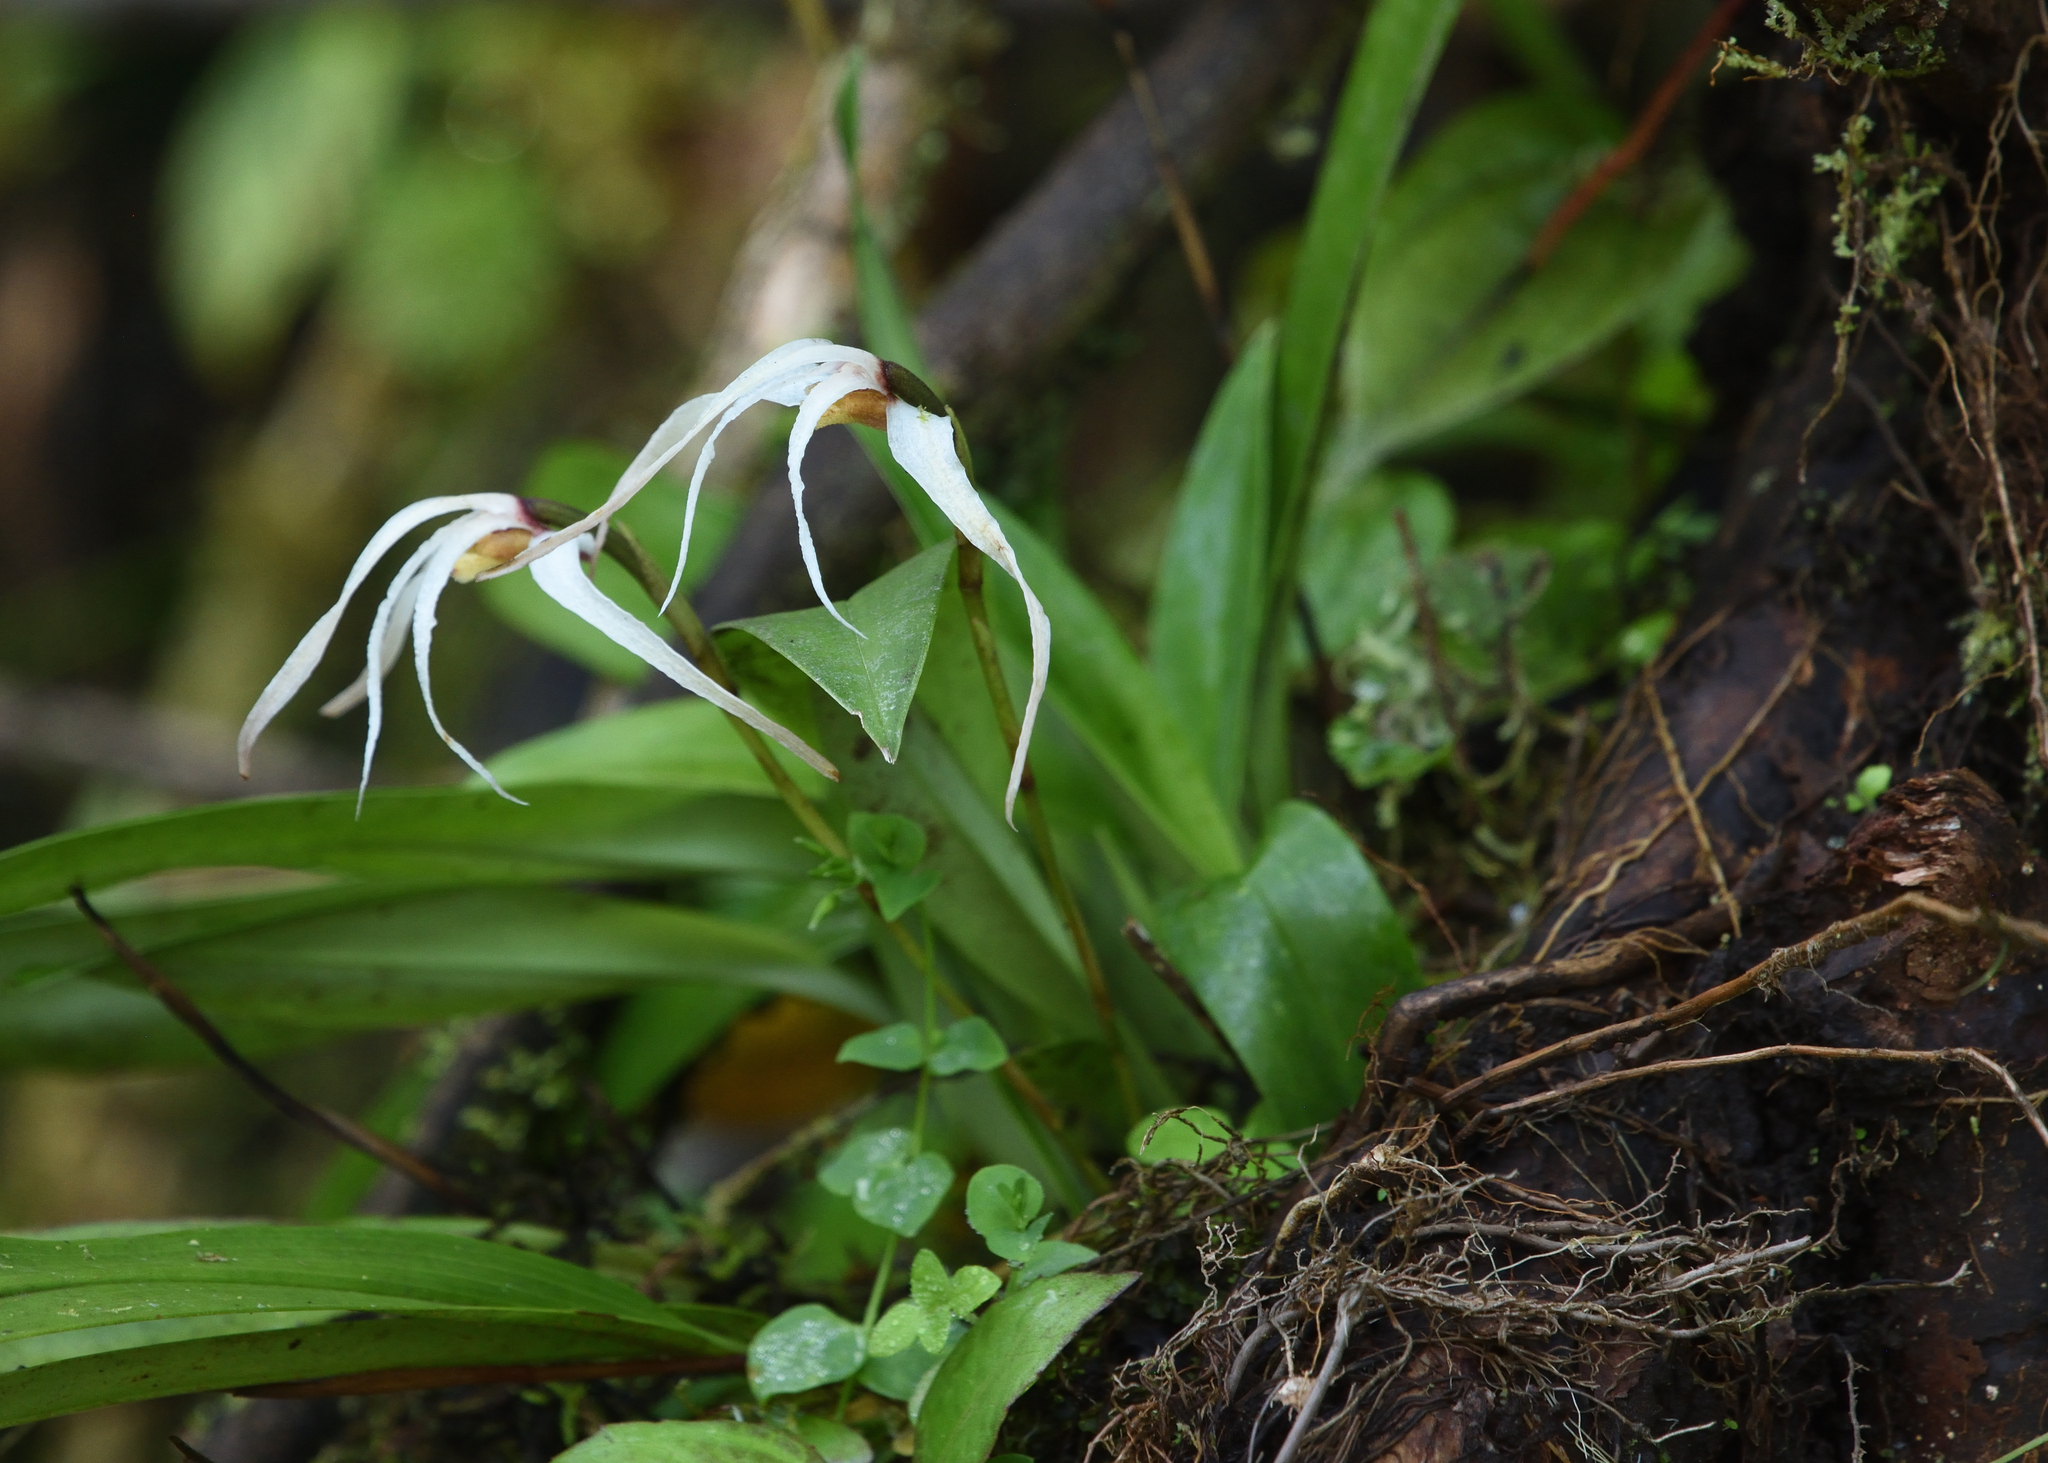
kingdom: Plantae
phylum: Tracheophyta
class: Liliopsida
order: Asparagales
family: Orchidaceae
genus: Maxillaria
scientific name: Maxillaria caucana
